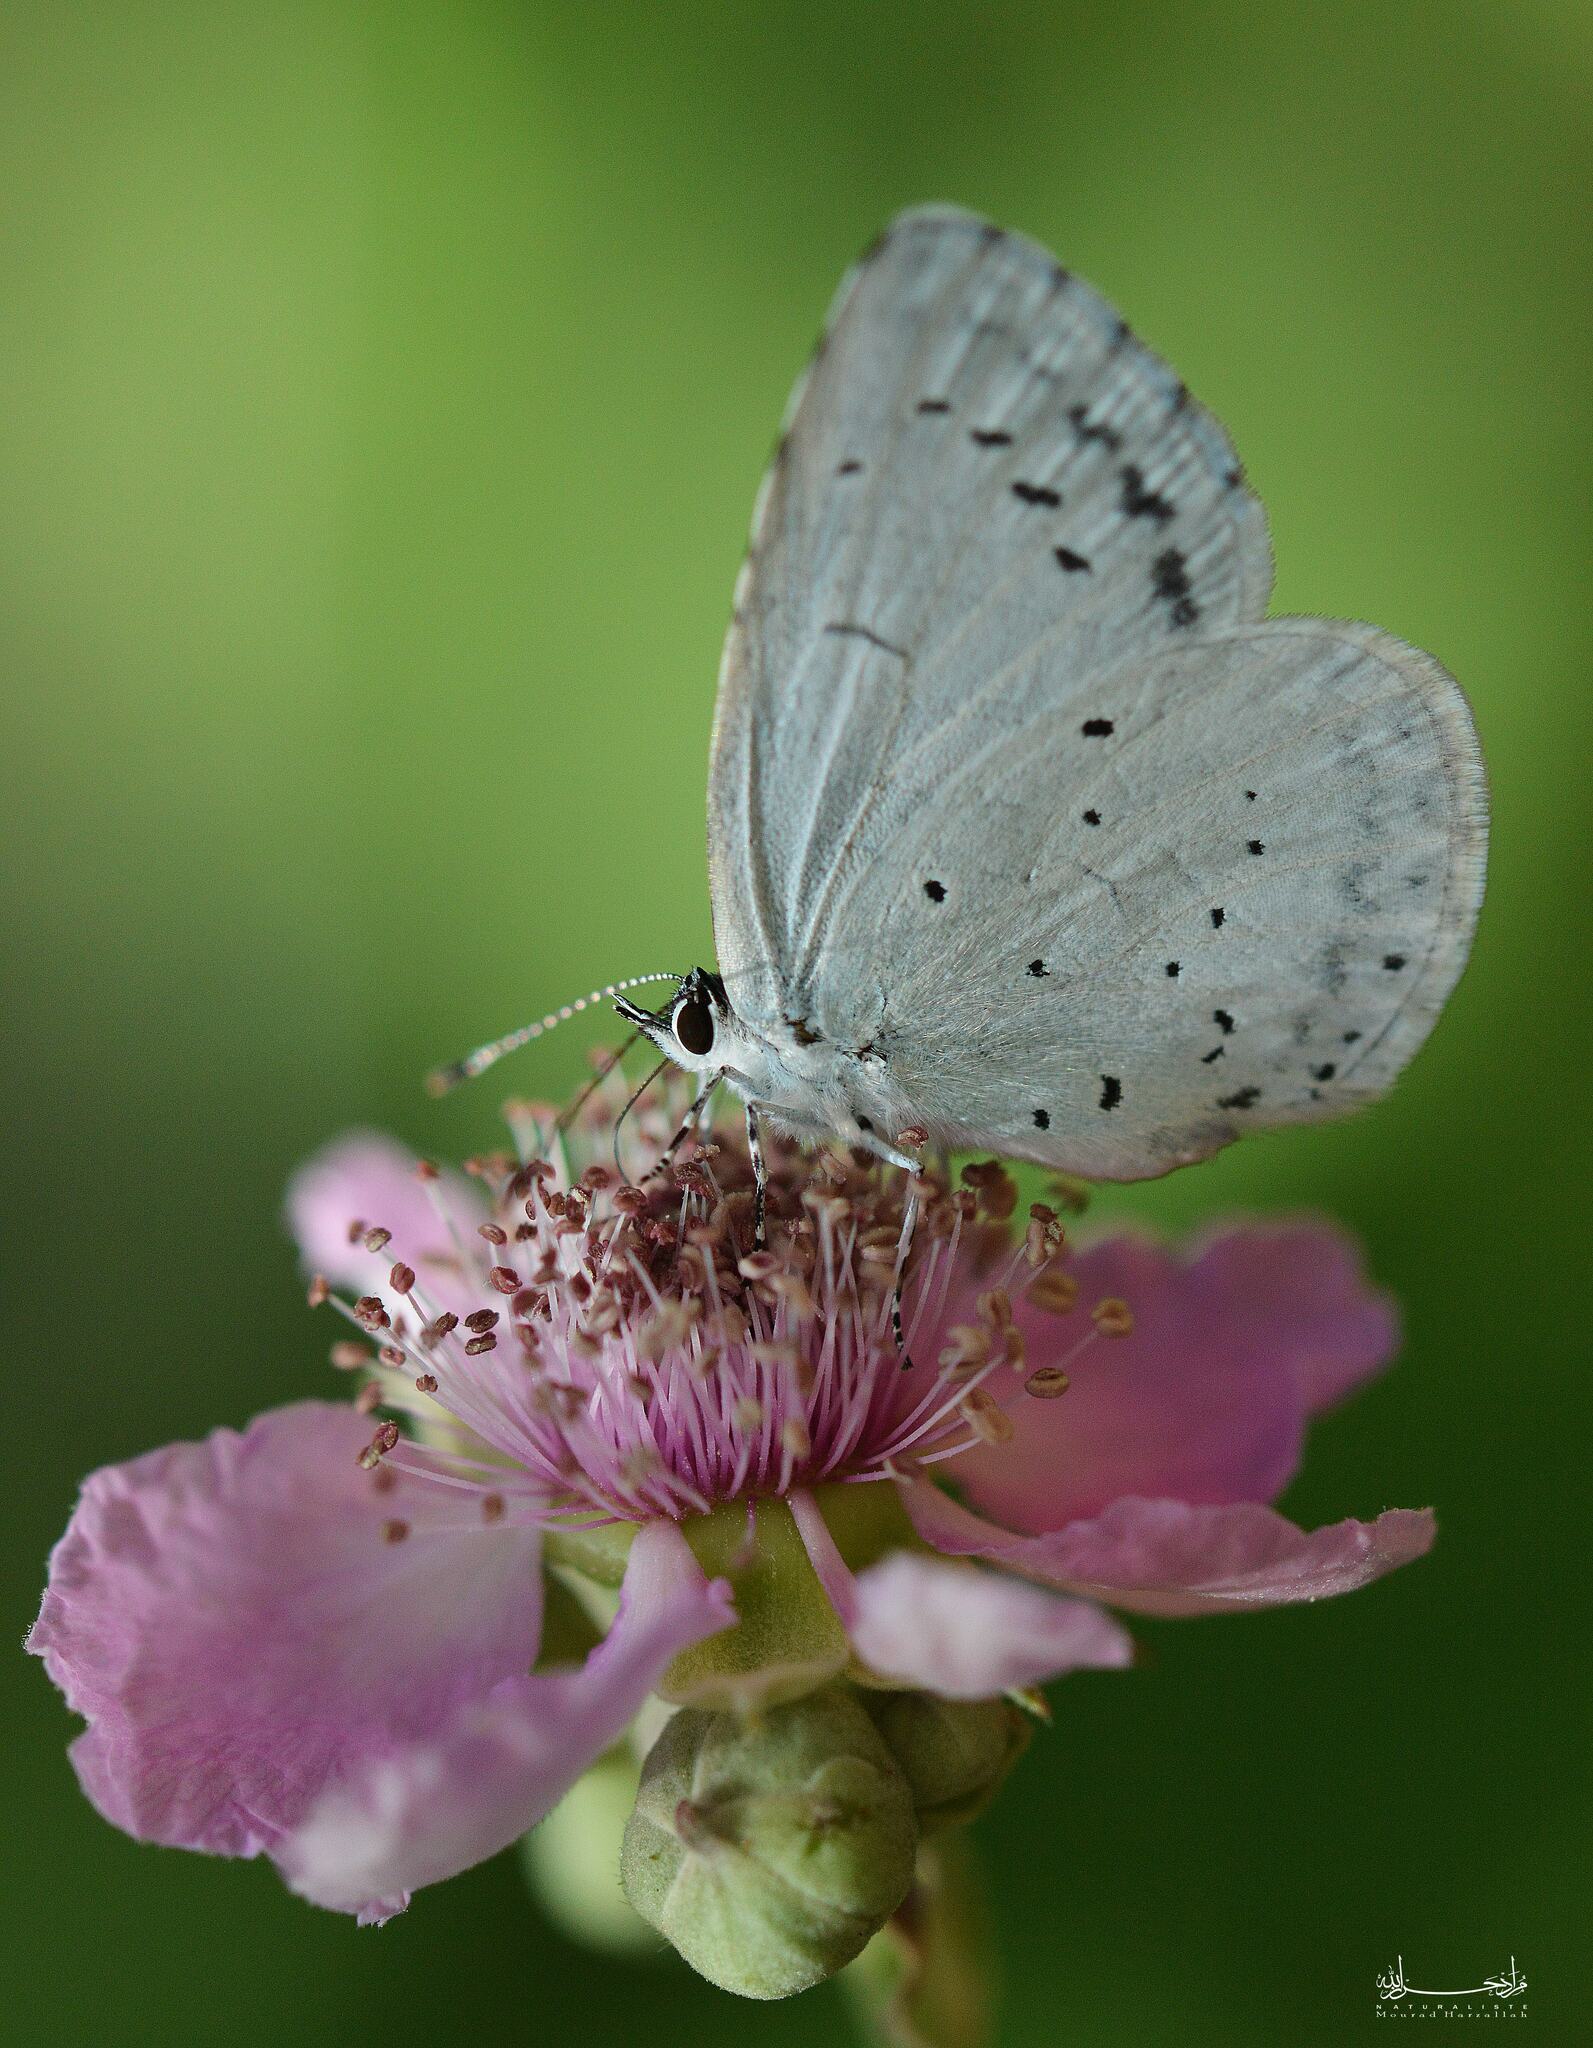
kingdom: Animalia
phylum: Arthropoda
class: Insecta
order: Lepidoptera
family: Lycaenidae
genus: Celastrina
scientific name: Celastrina argiolus
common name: Holly blue
